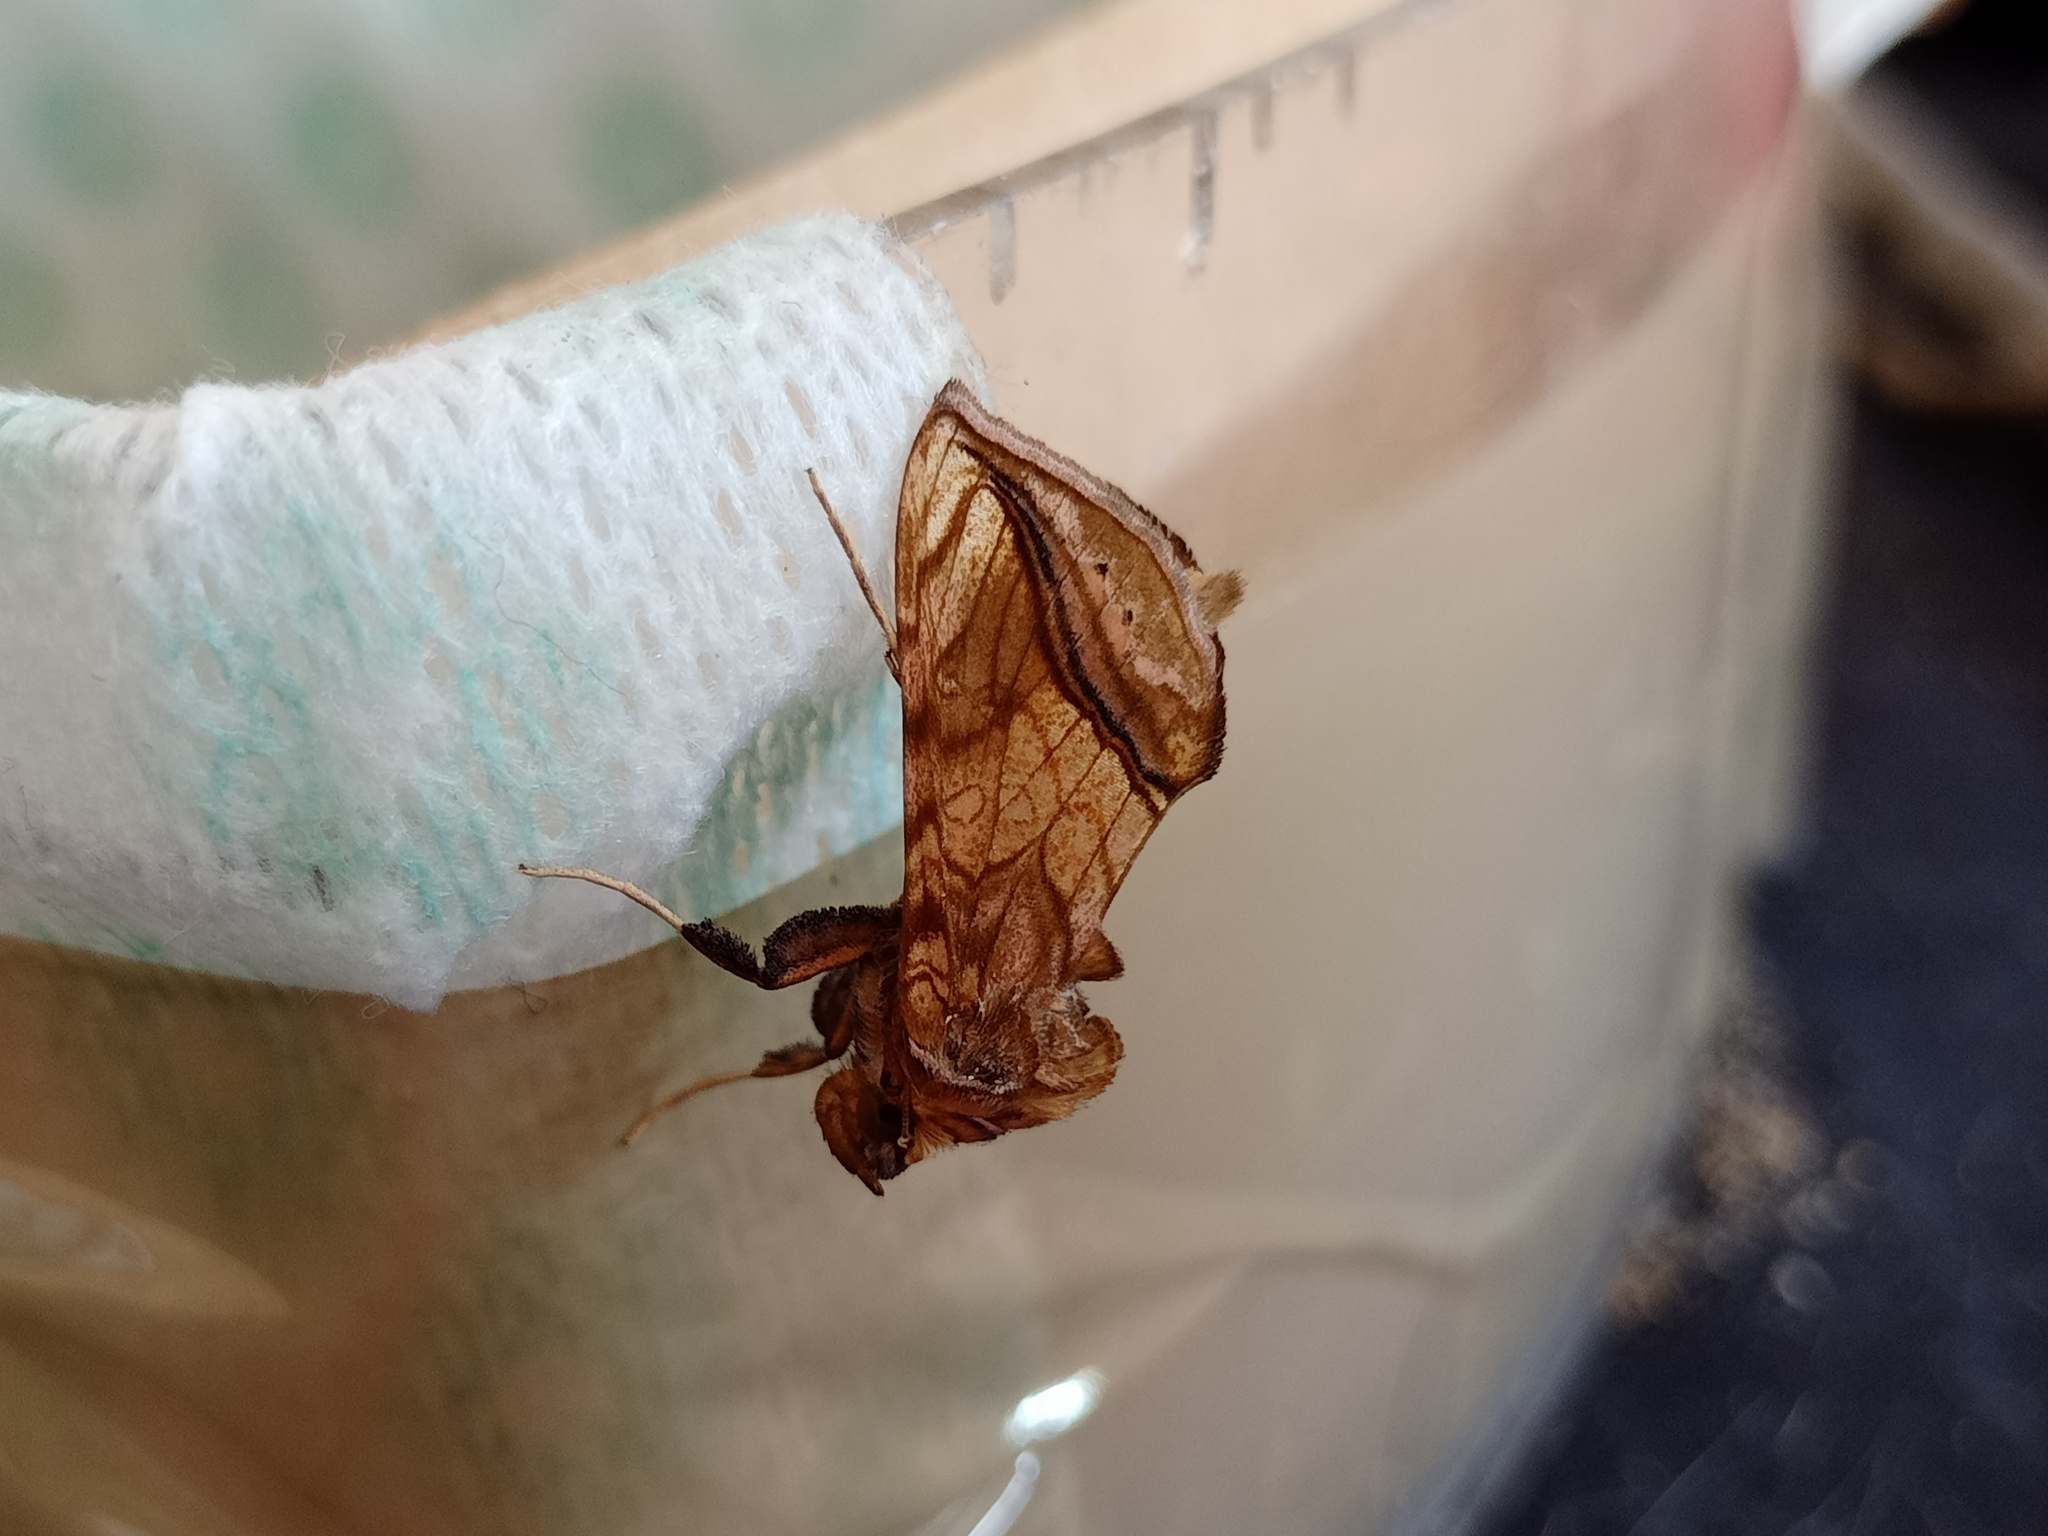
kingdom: Animalia
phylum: Arthropoda
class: Insecta
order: Lepidoptera
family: Noctuidae
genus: Panchrysia
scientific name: Panchrysia deaurata
